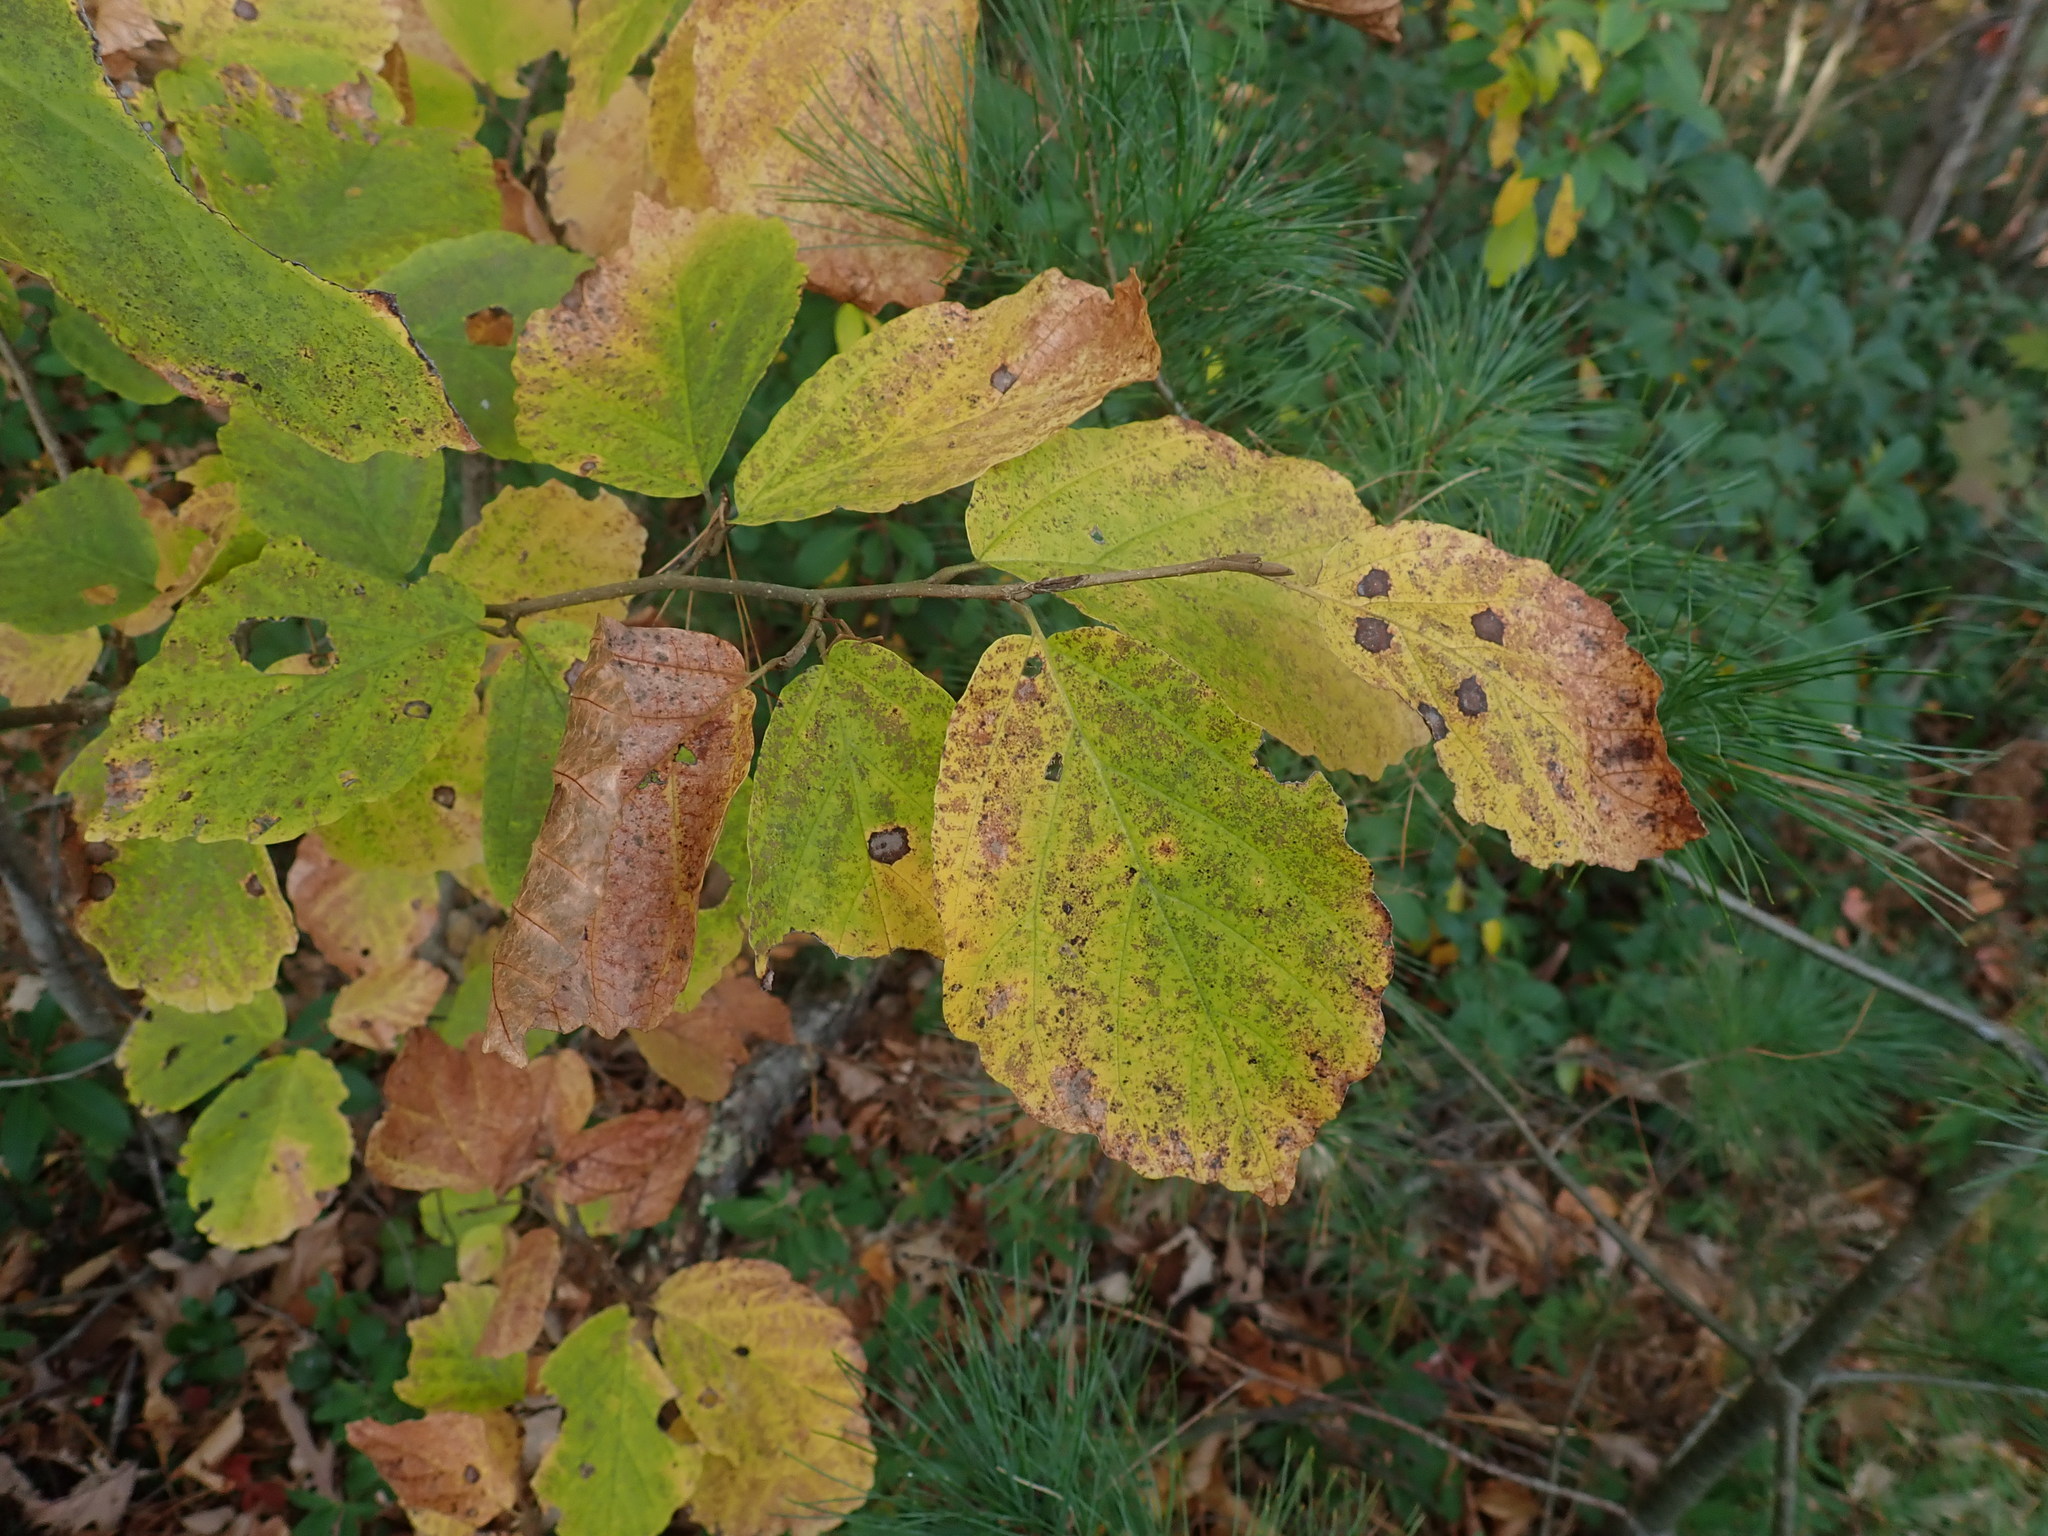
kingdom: Plantae
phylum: Tracheophyta
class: Magnoliopsida
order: Saxifragales
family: Hamamelidaceae
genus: Hamamelis
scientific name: Hamamelis virginiana
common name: Witch-hazel
